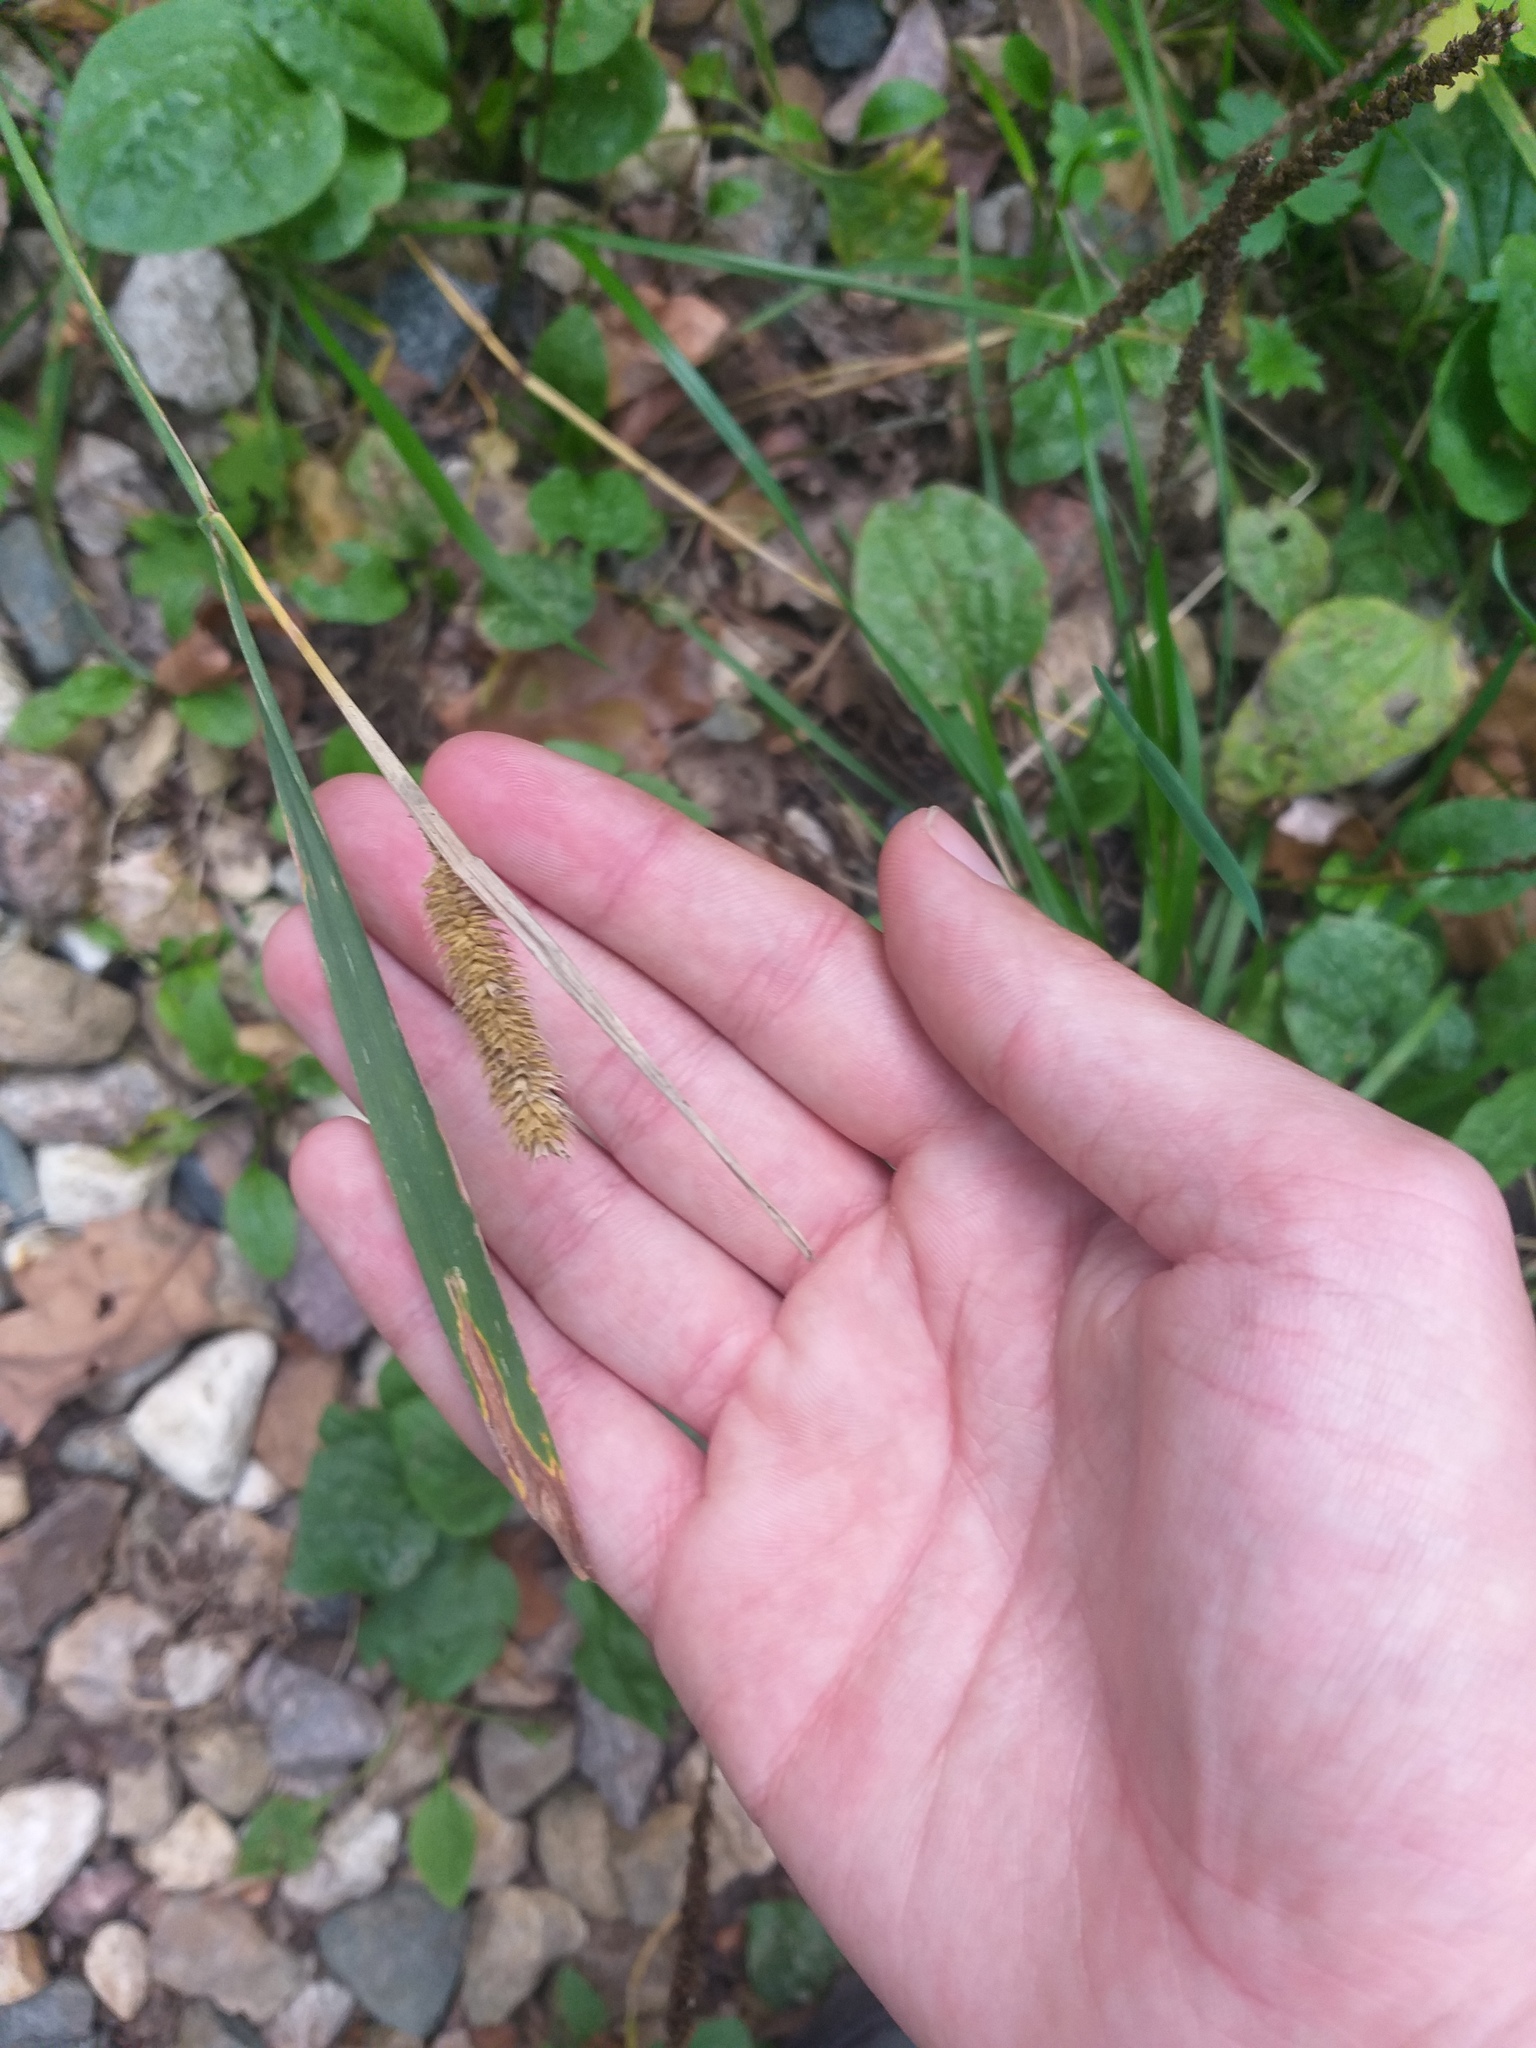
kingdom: Plantae
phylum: Tracheophyta
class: Liliopsida
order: Poales
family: Poaceae
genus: Phleum
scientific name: Phleum pratense
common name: Timothy grass
